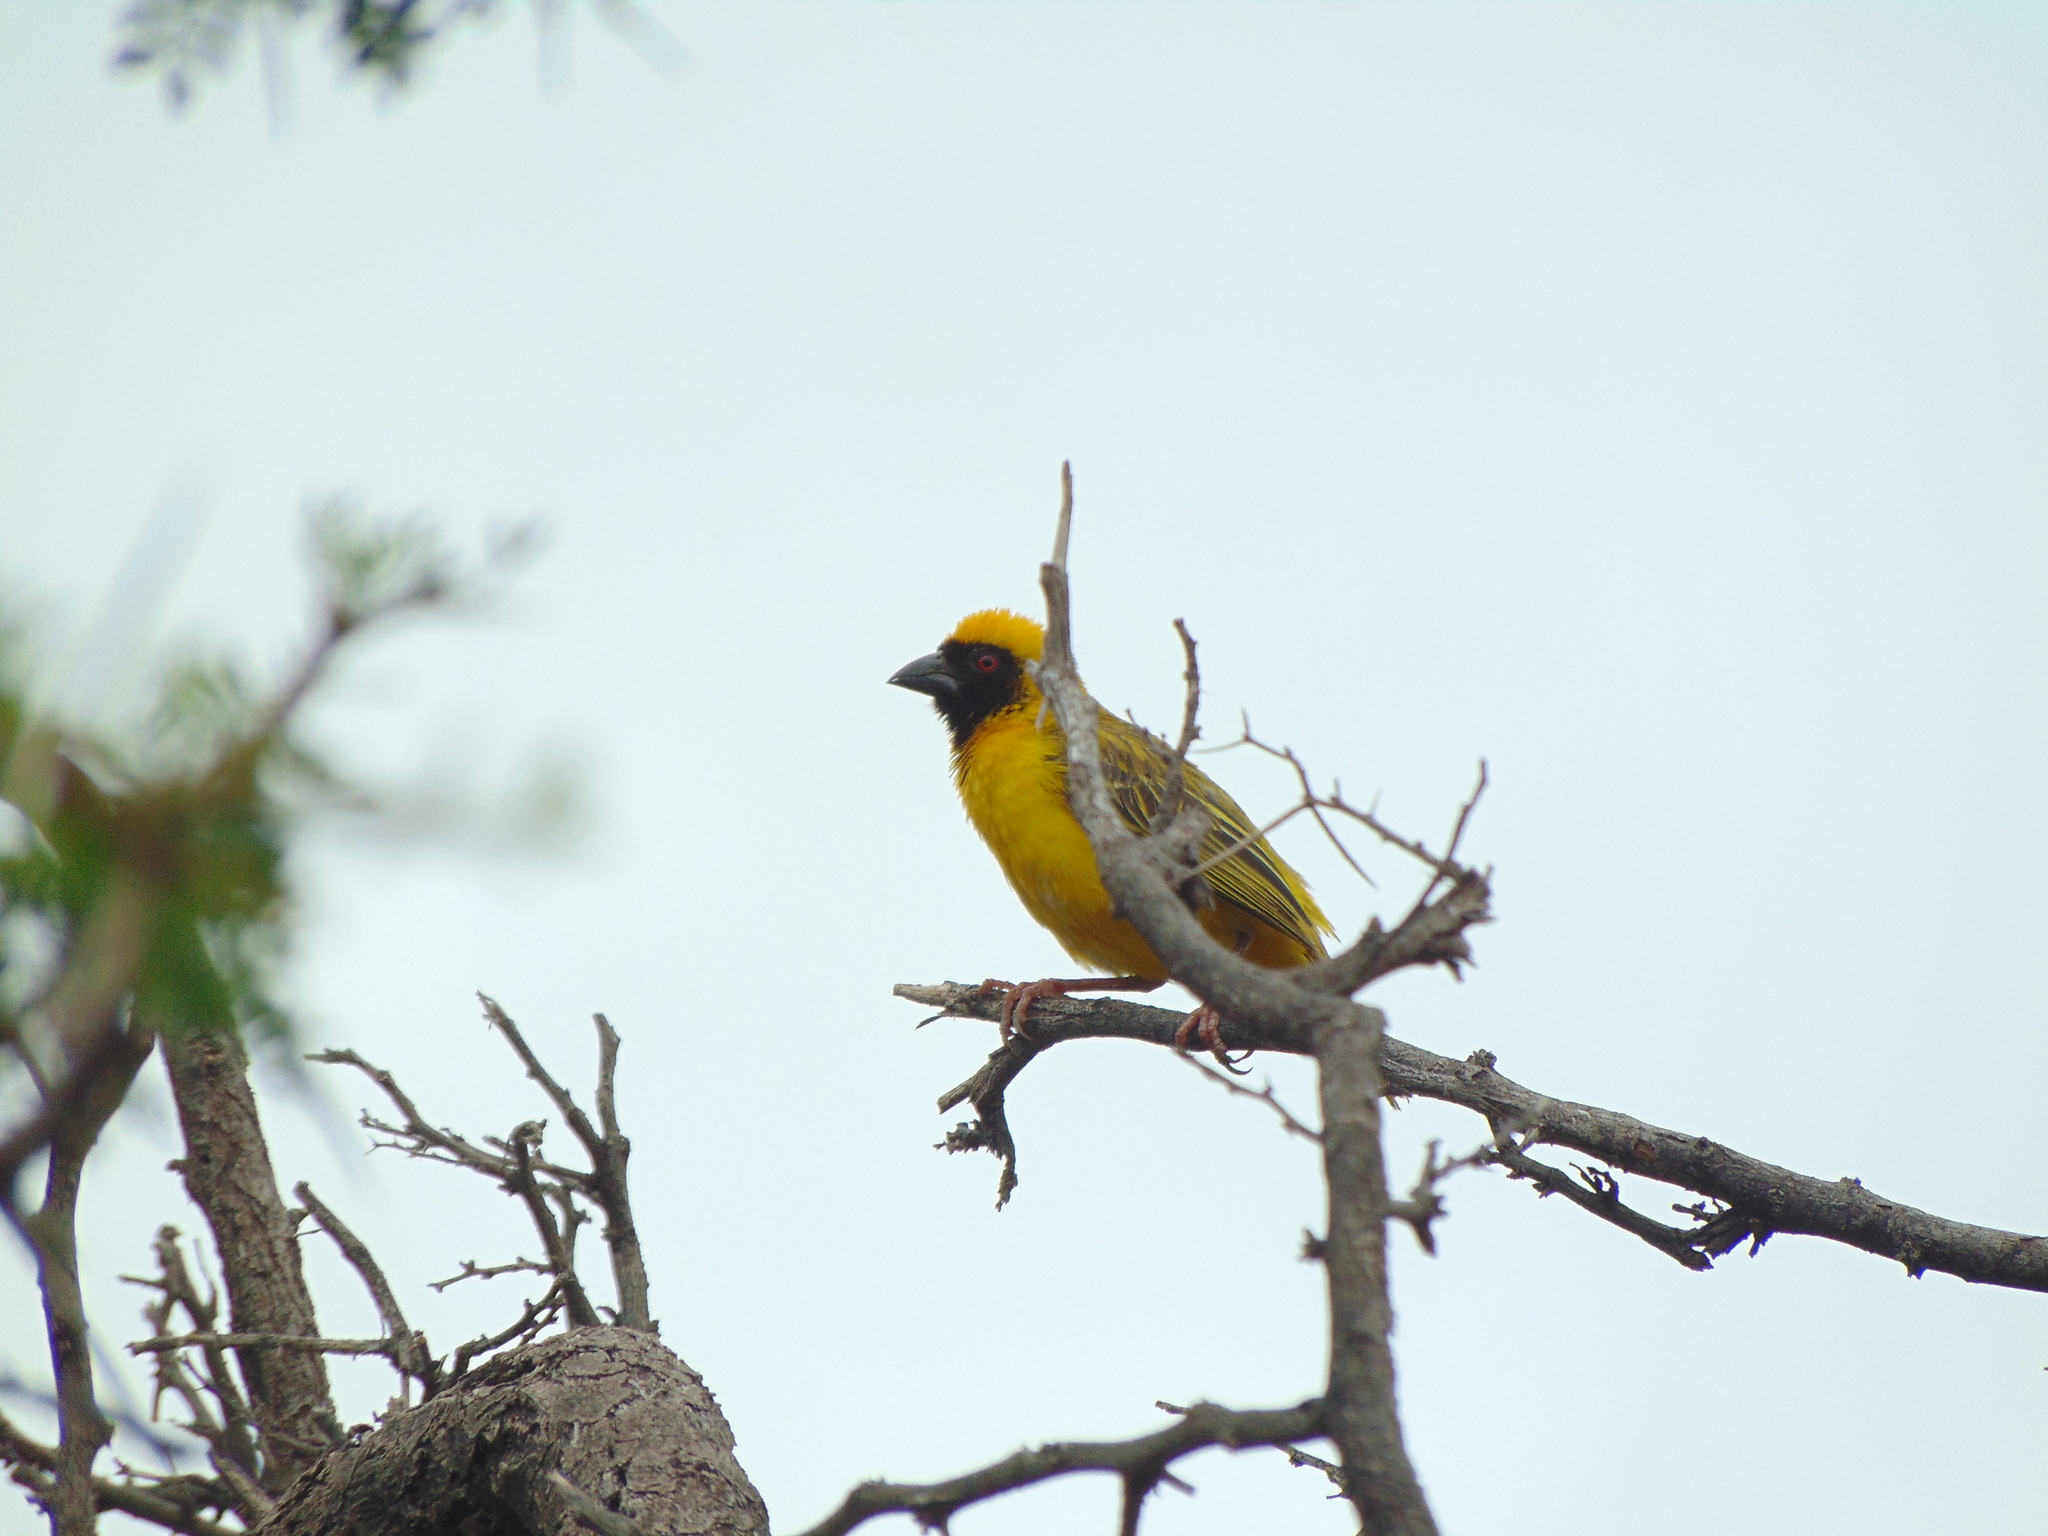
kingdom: Animalia
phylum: Chordata
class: Aves
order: Passeriformes
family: Ploceidae
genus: Ploceus
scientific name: Ploceus velatus
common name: Southern masked weaver
